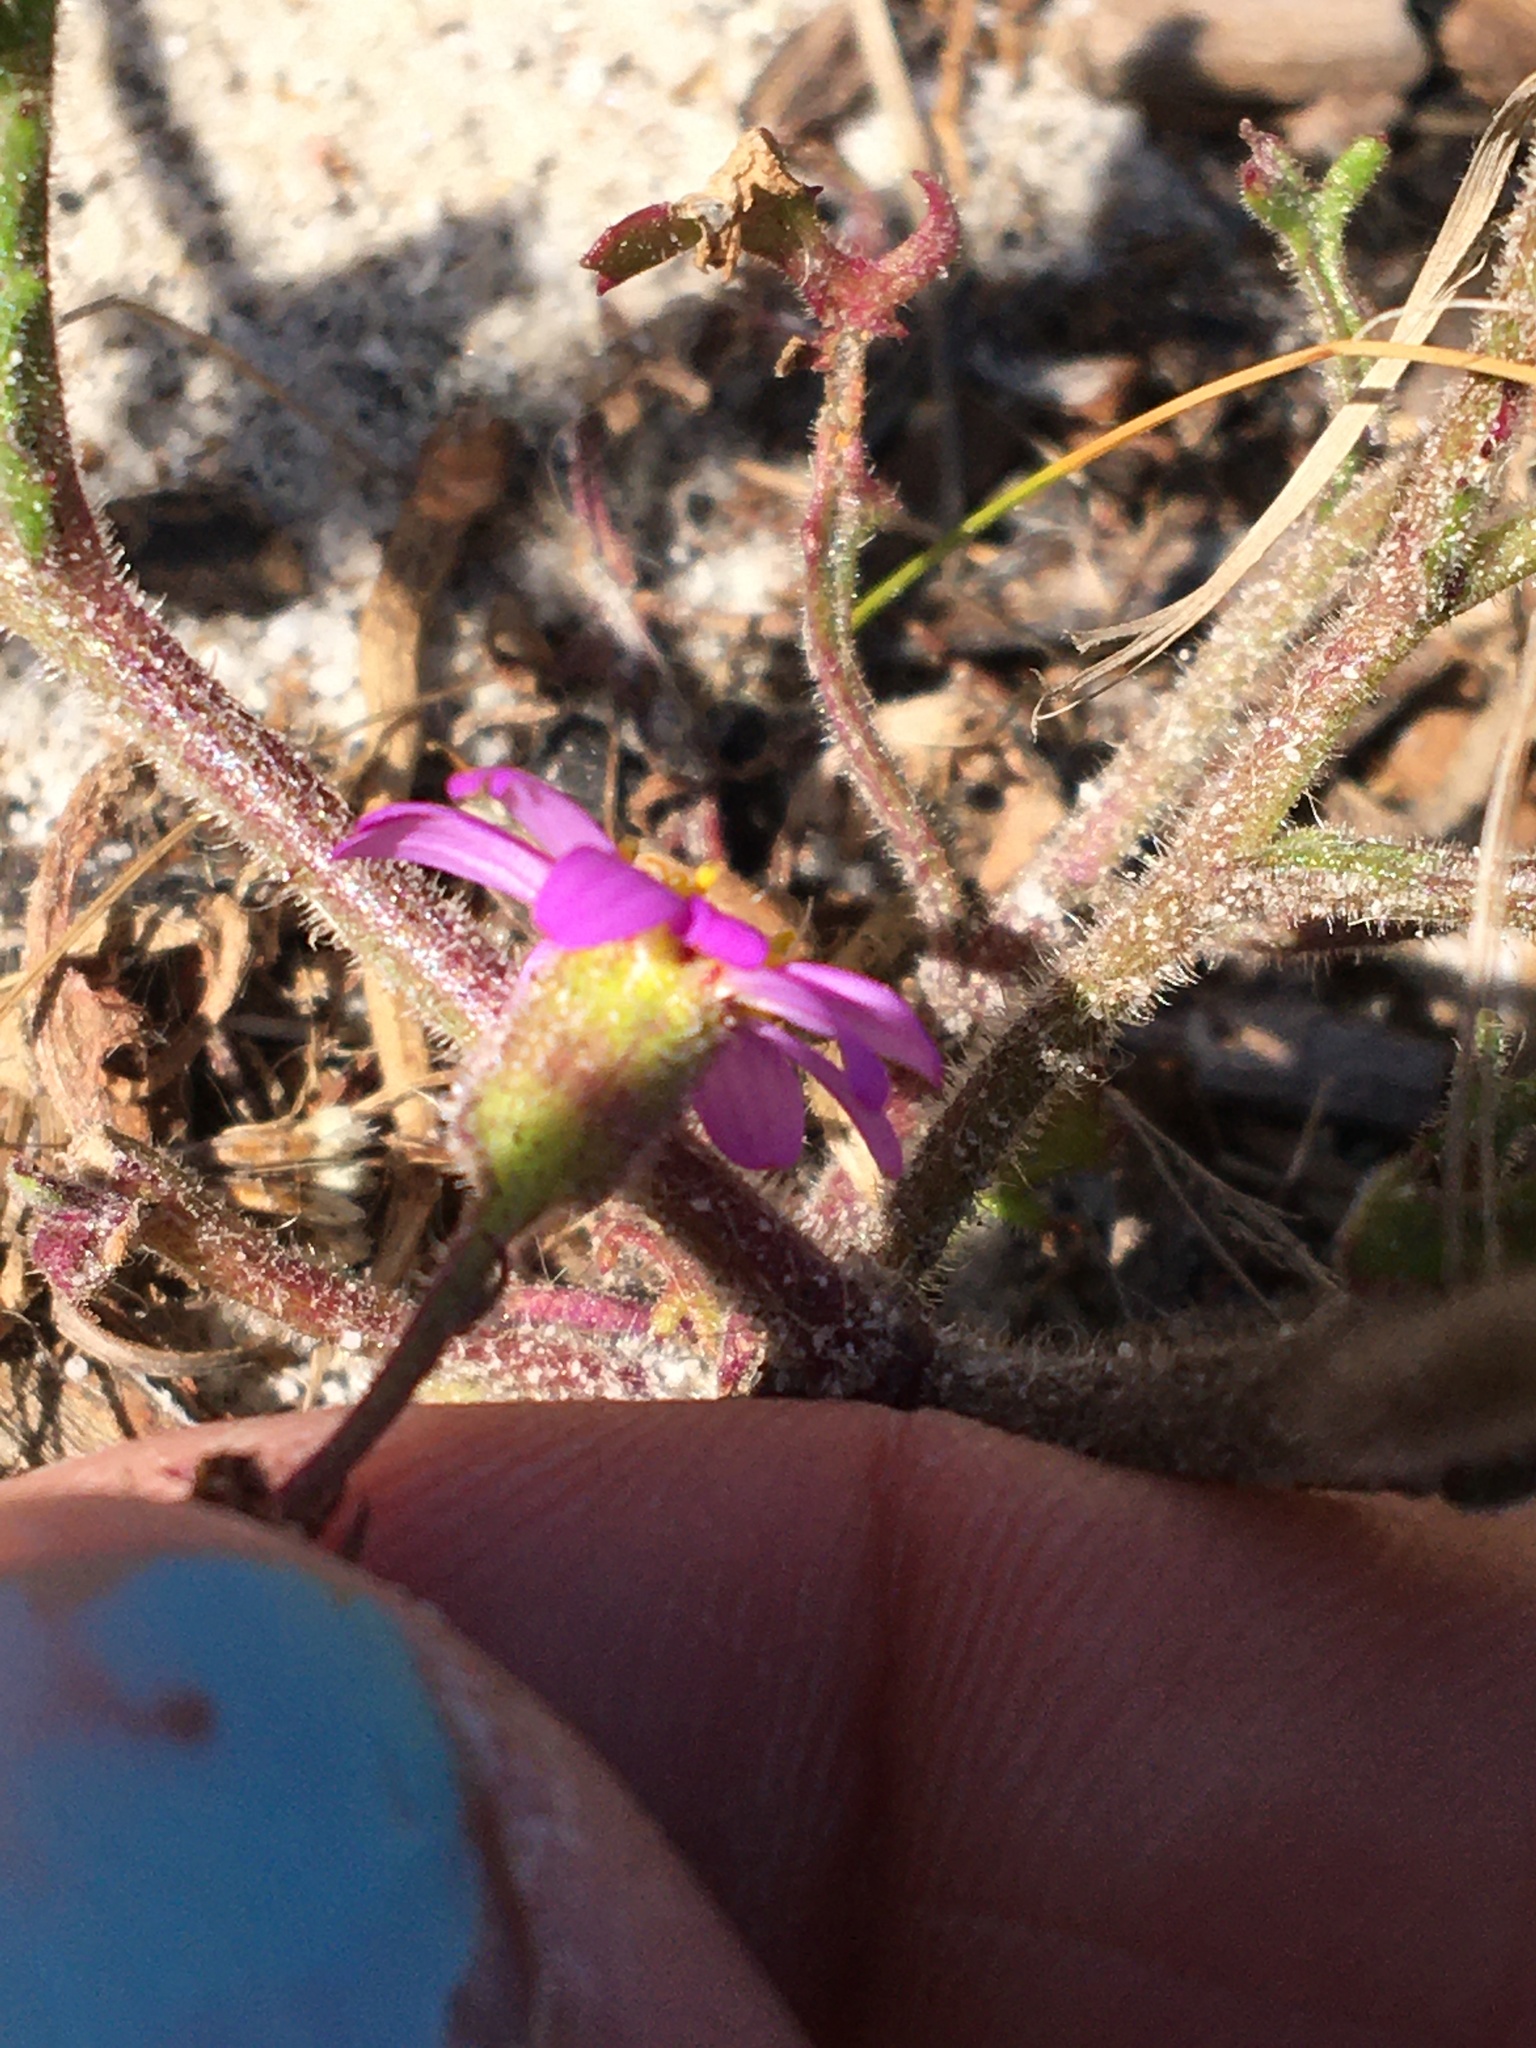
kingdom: Plantae
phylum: Tracheophyta
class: Magnoliopsida
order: Asterales
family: Asteraceae
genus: Senecio
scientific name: Senecio arenarius
